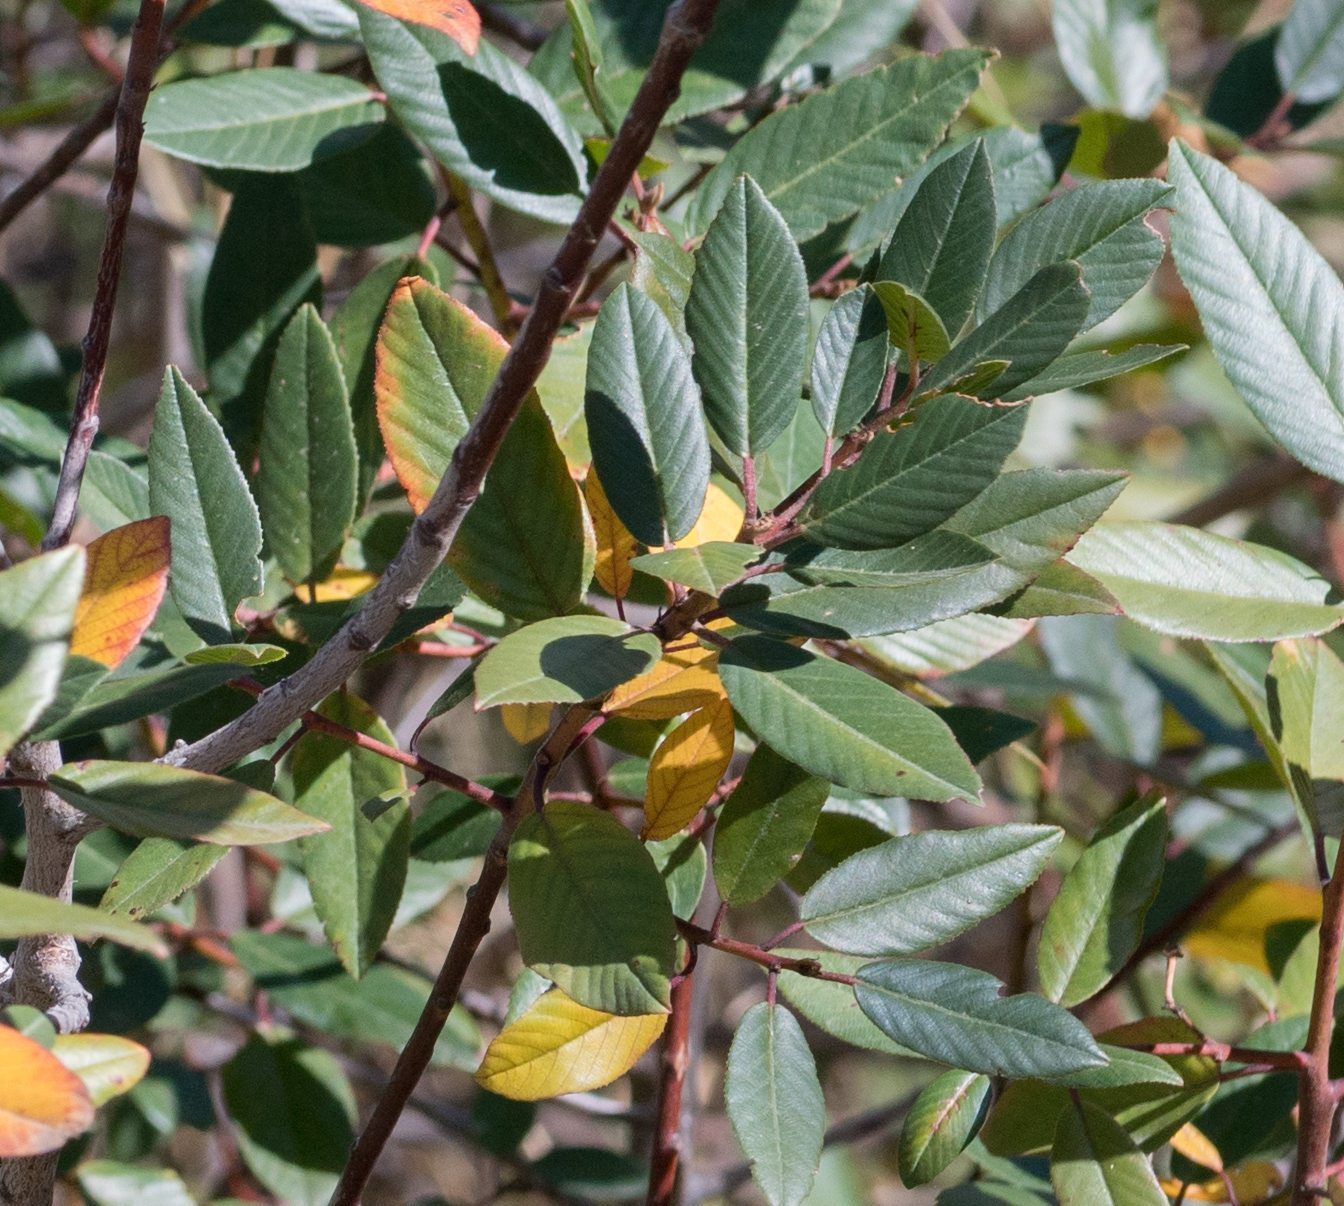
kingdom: Plantae
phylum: Tracheophyta
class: Magnoliopsida
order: Rosales
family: Rhamnaceae
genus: Frangula
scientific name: Frangula californica
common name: California buckthorn
